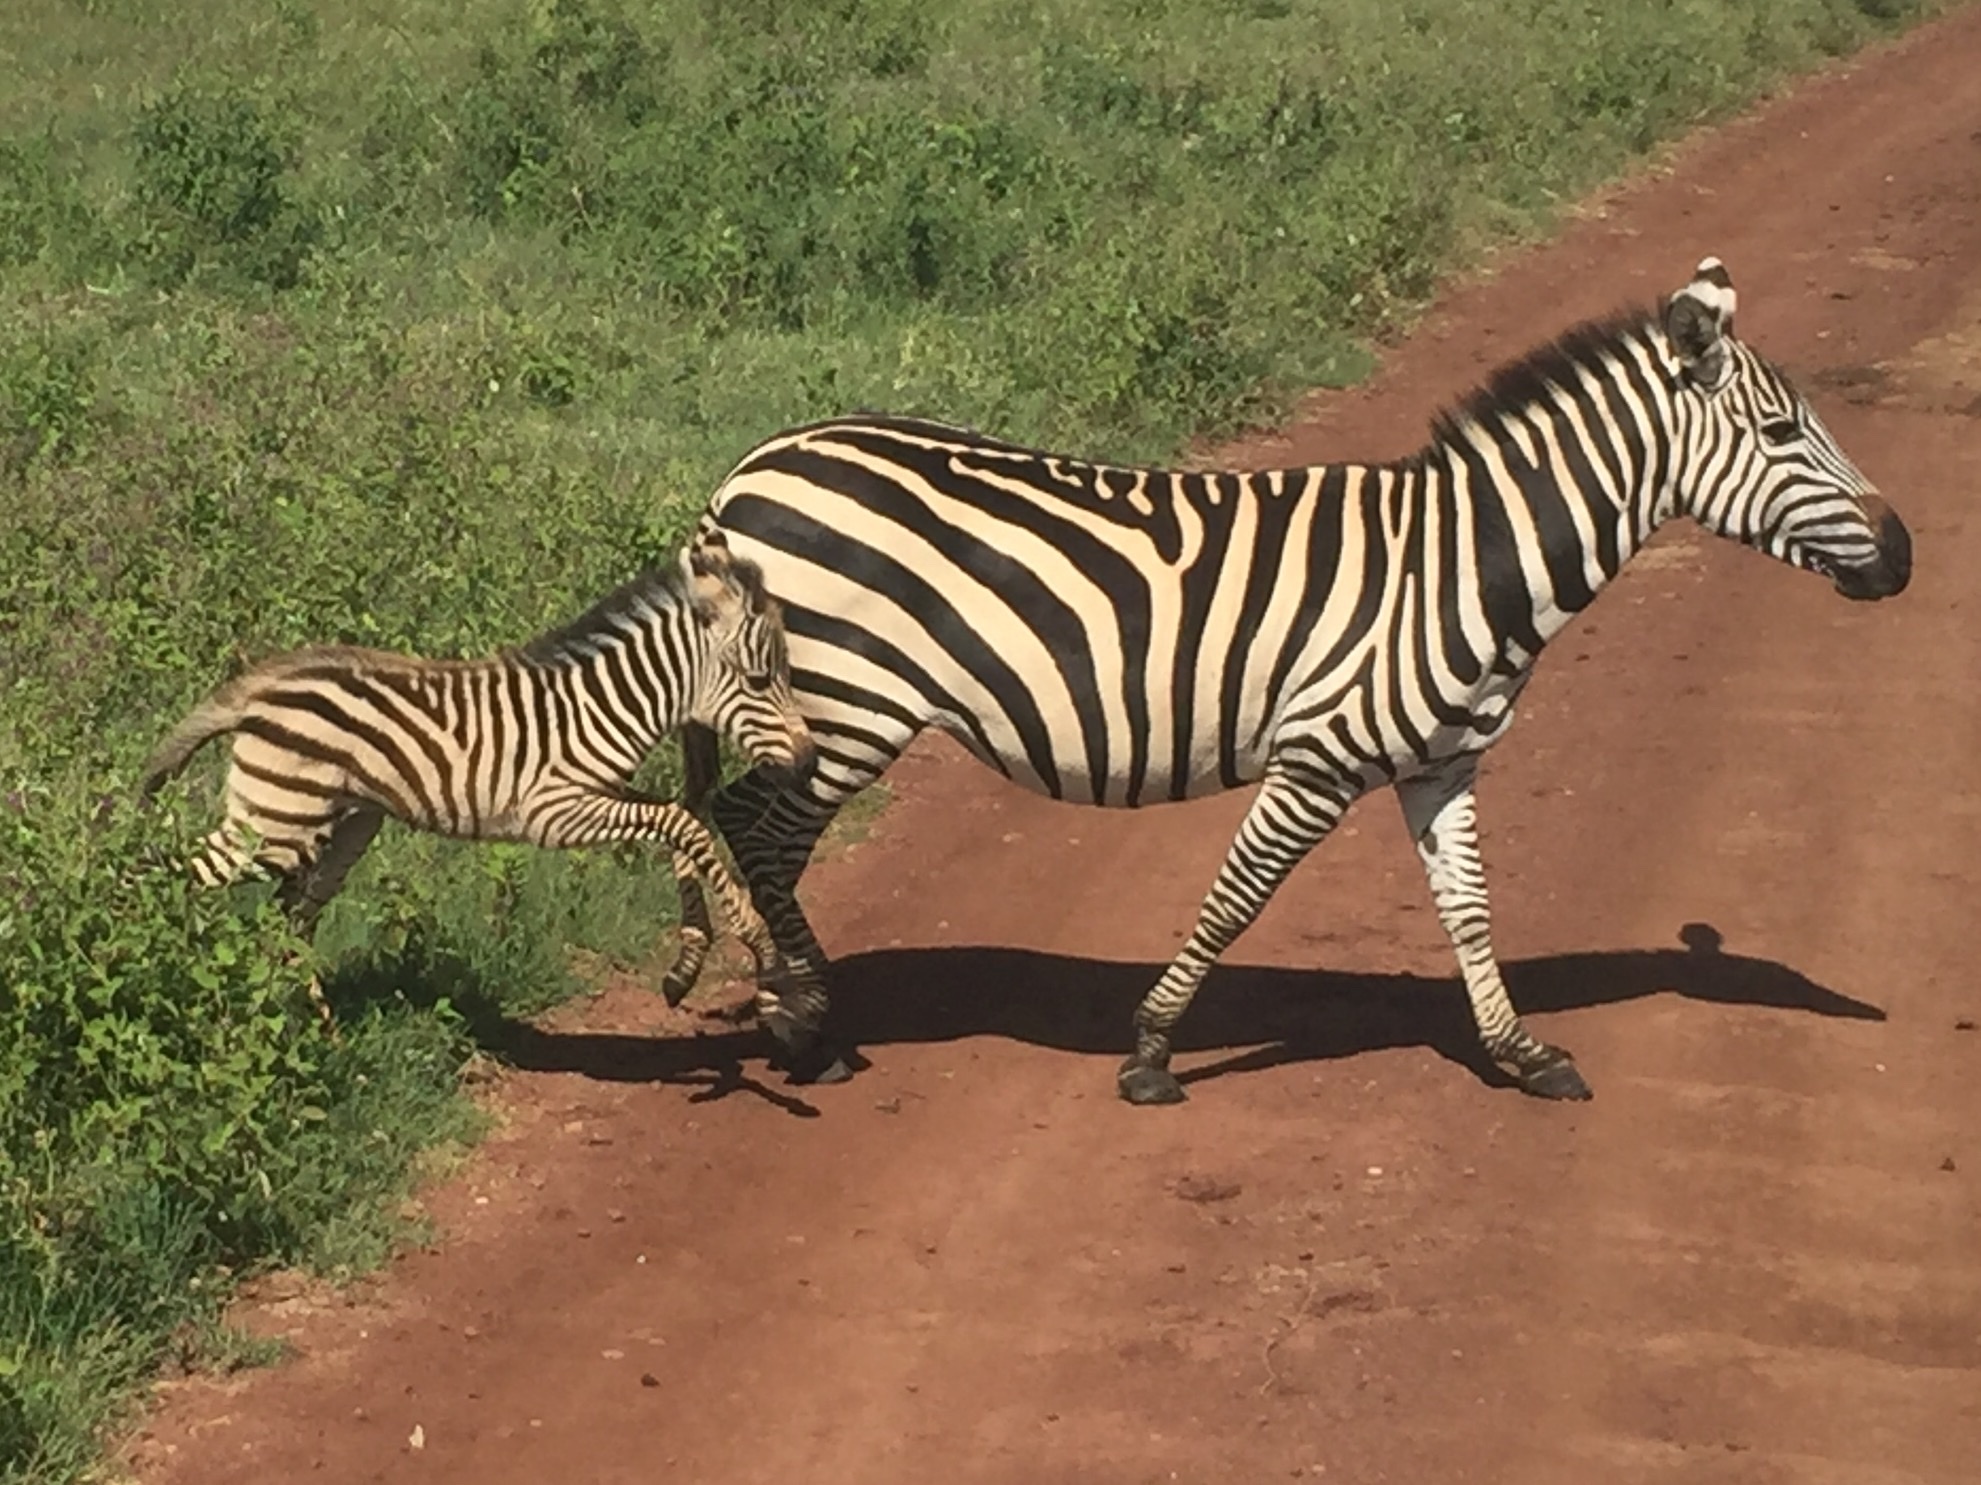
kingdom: Animalia
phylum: Chordata
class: Mammalia
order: Perissodactyla
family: Equidae
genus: Equus
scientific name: Equus quagga
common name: Plains zebra
